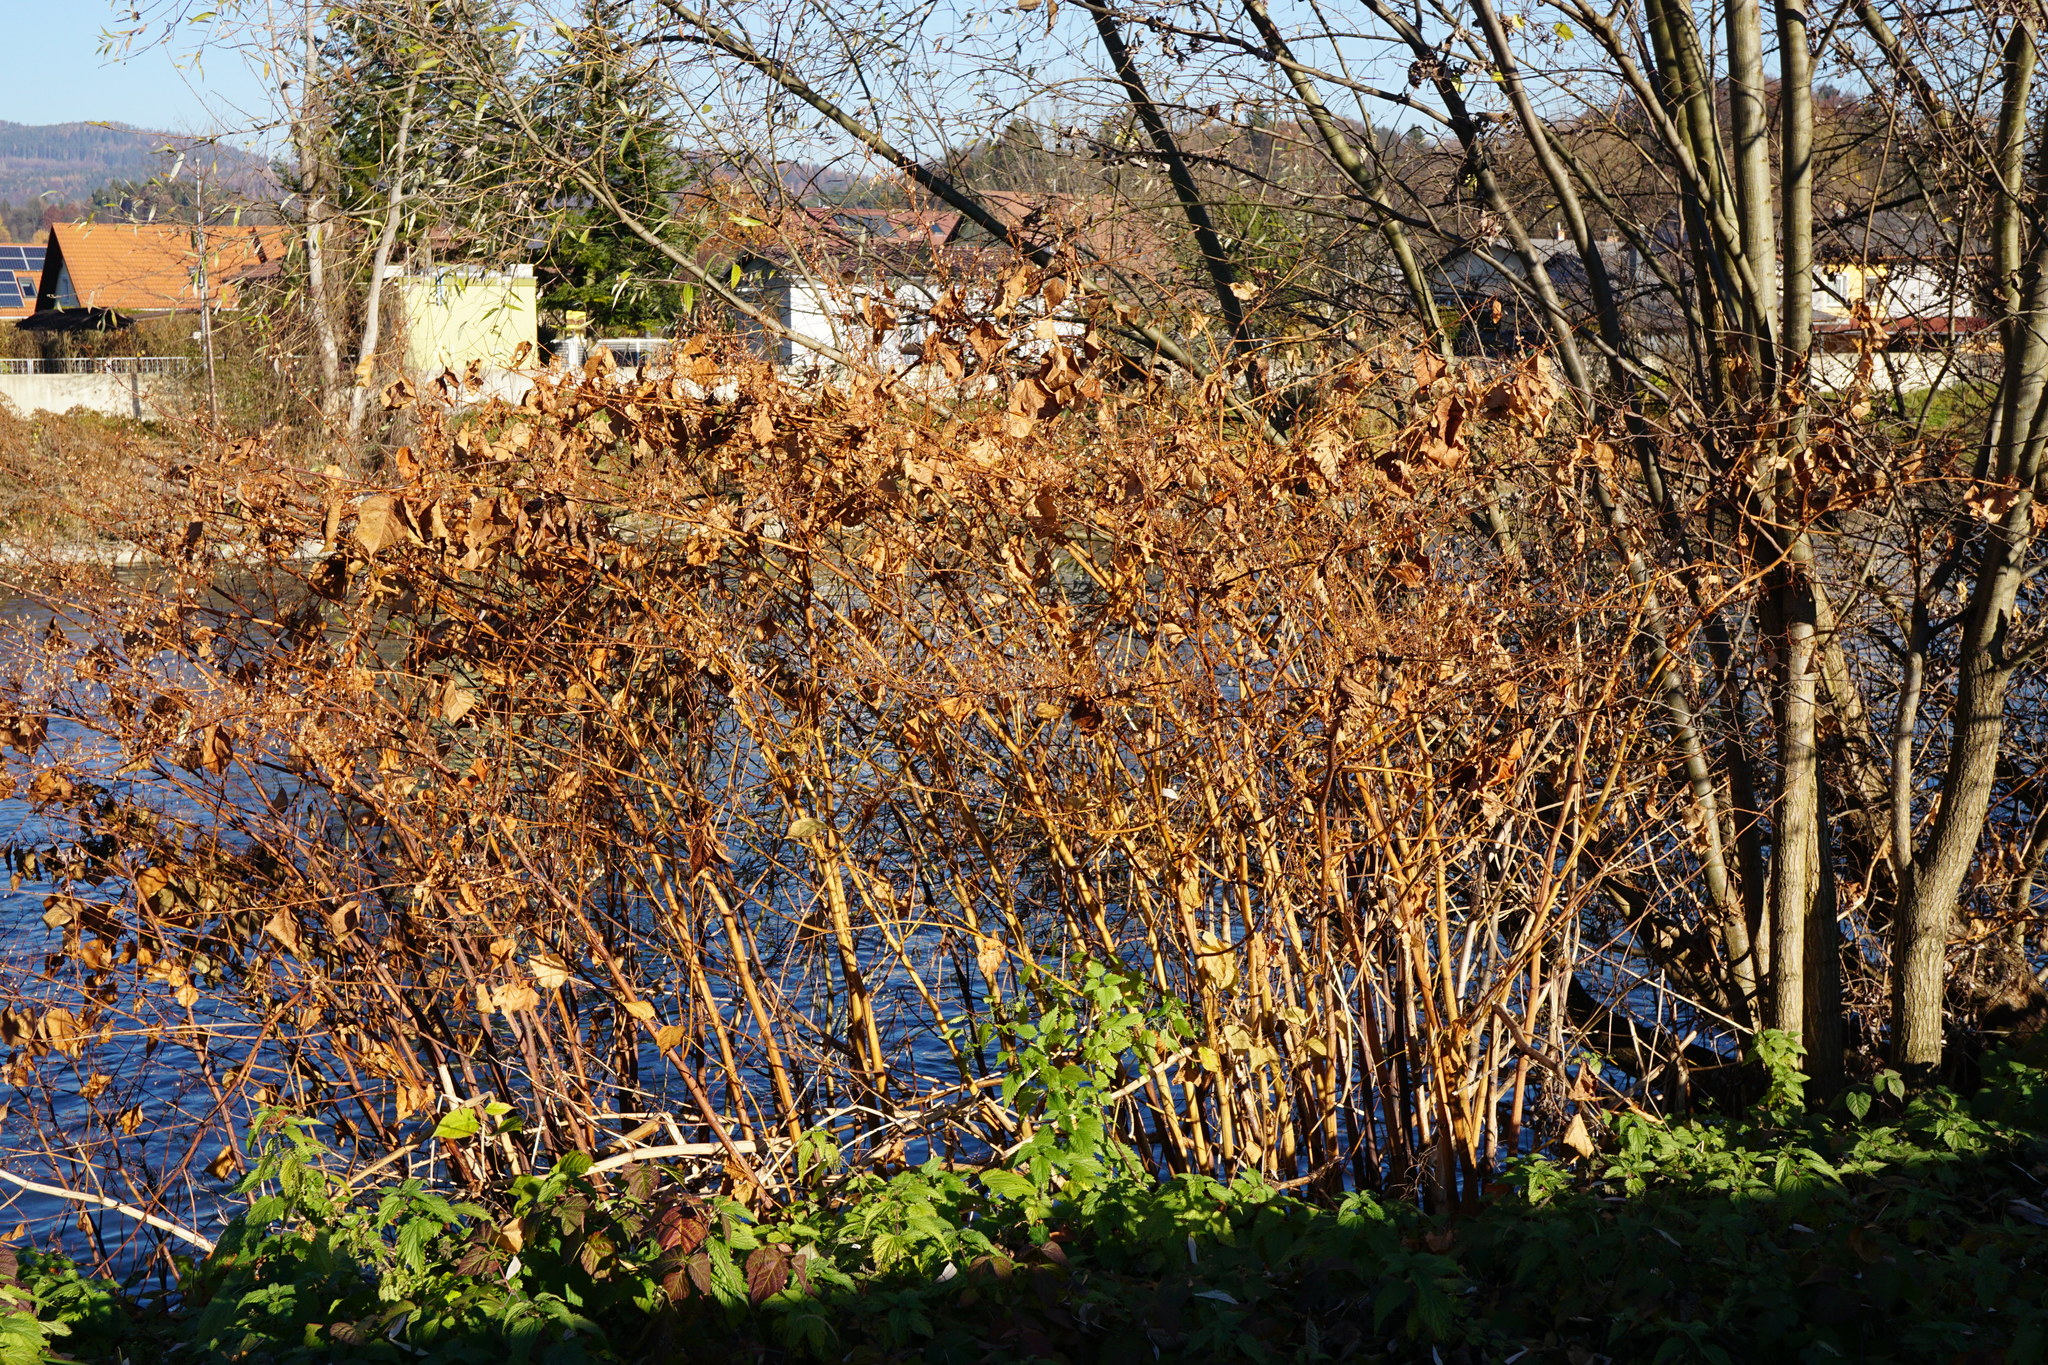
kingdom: Plantae
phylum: Tracheophyta
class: Magnoliopsida
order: Caryophyllales
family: Polygonaceae
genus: Reynoutria
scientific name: Reynoutria japonica
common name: Japanese knotweed
